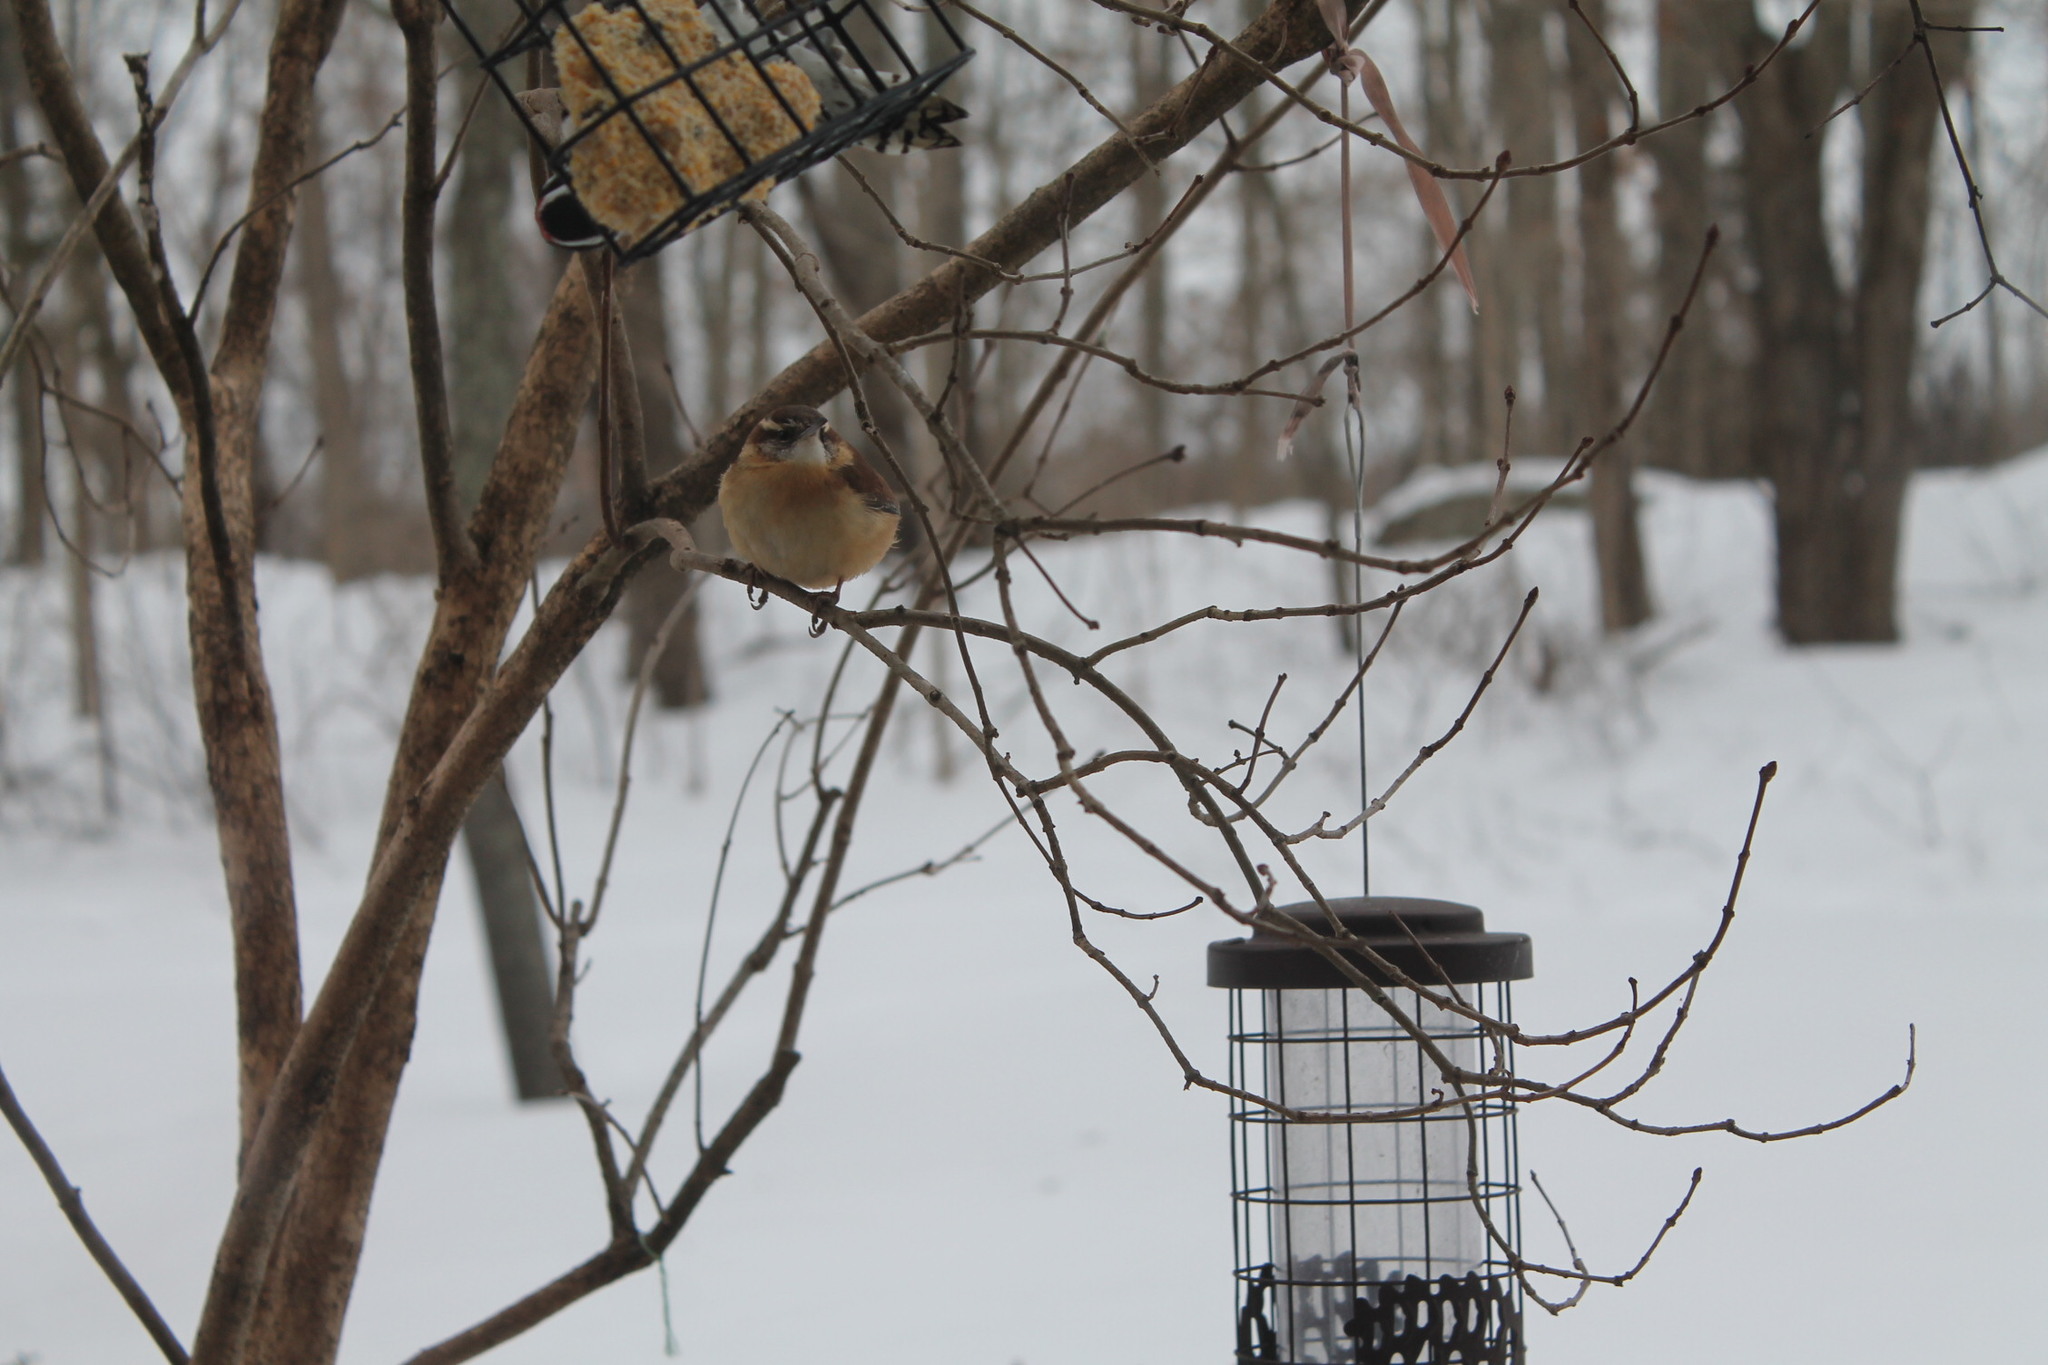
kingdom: Animalia
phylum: Chordata
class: Aves
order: Passeriformes
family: Troglodytidae
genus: Thryothorus
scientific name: Thryothorus ludovicianus
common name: Carolina wren
